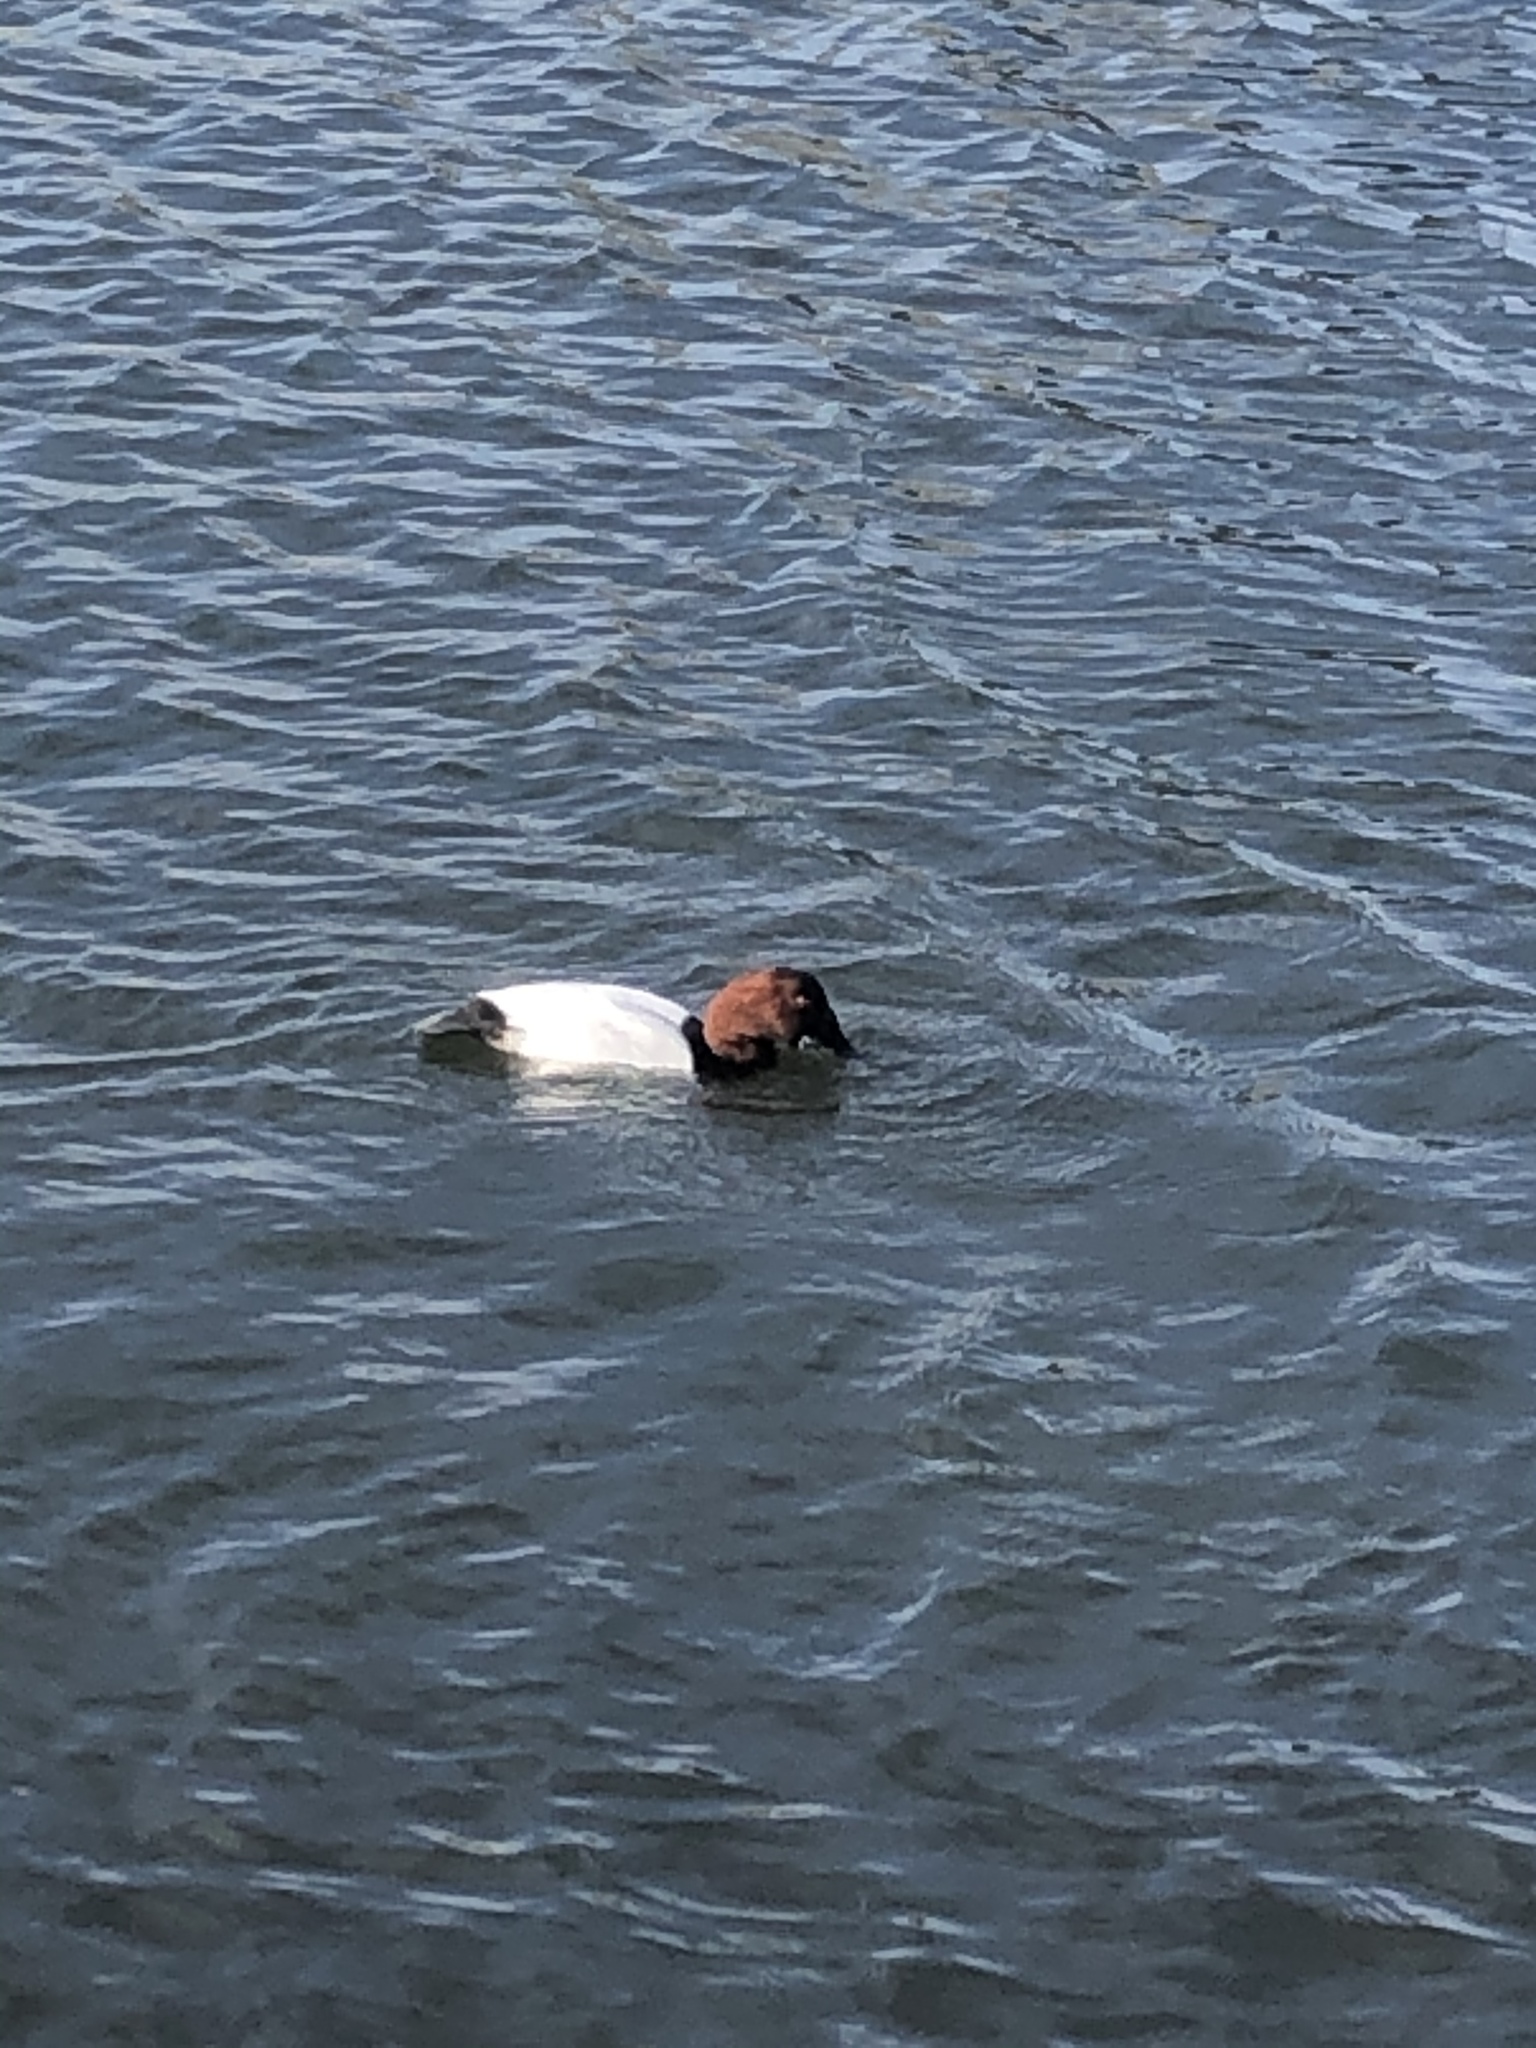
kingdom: Animalia
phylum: Chordata
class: Aves
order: Anseriformes
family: Anatidae
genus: Aythya
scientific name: Aythya valisineria
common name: Canvasback
